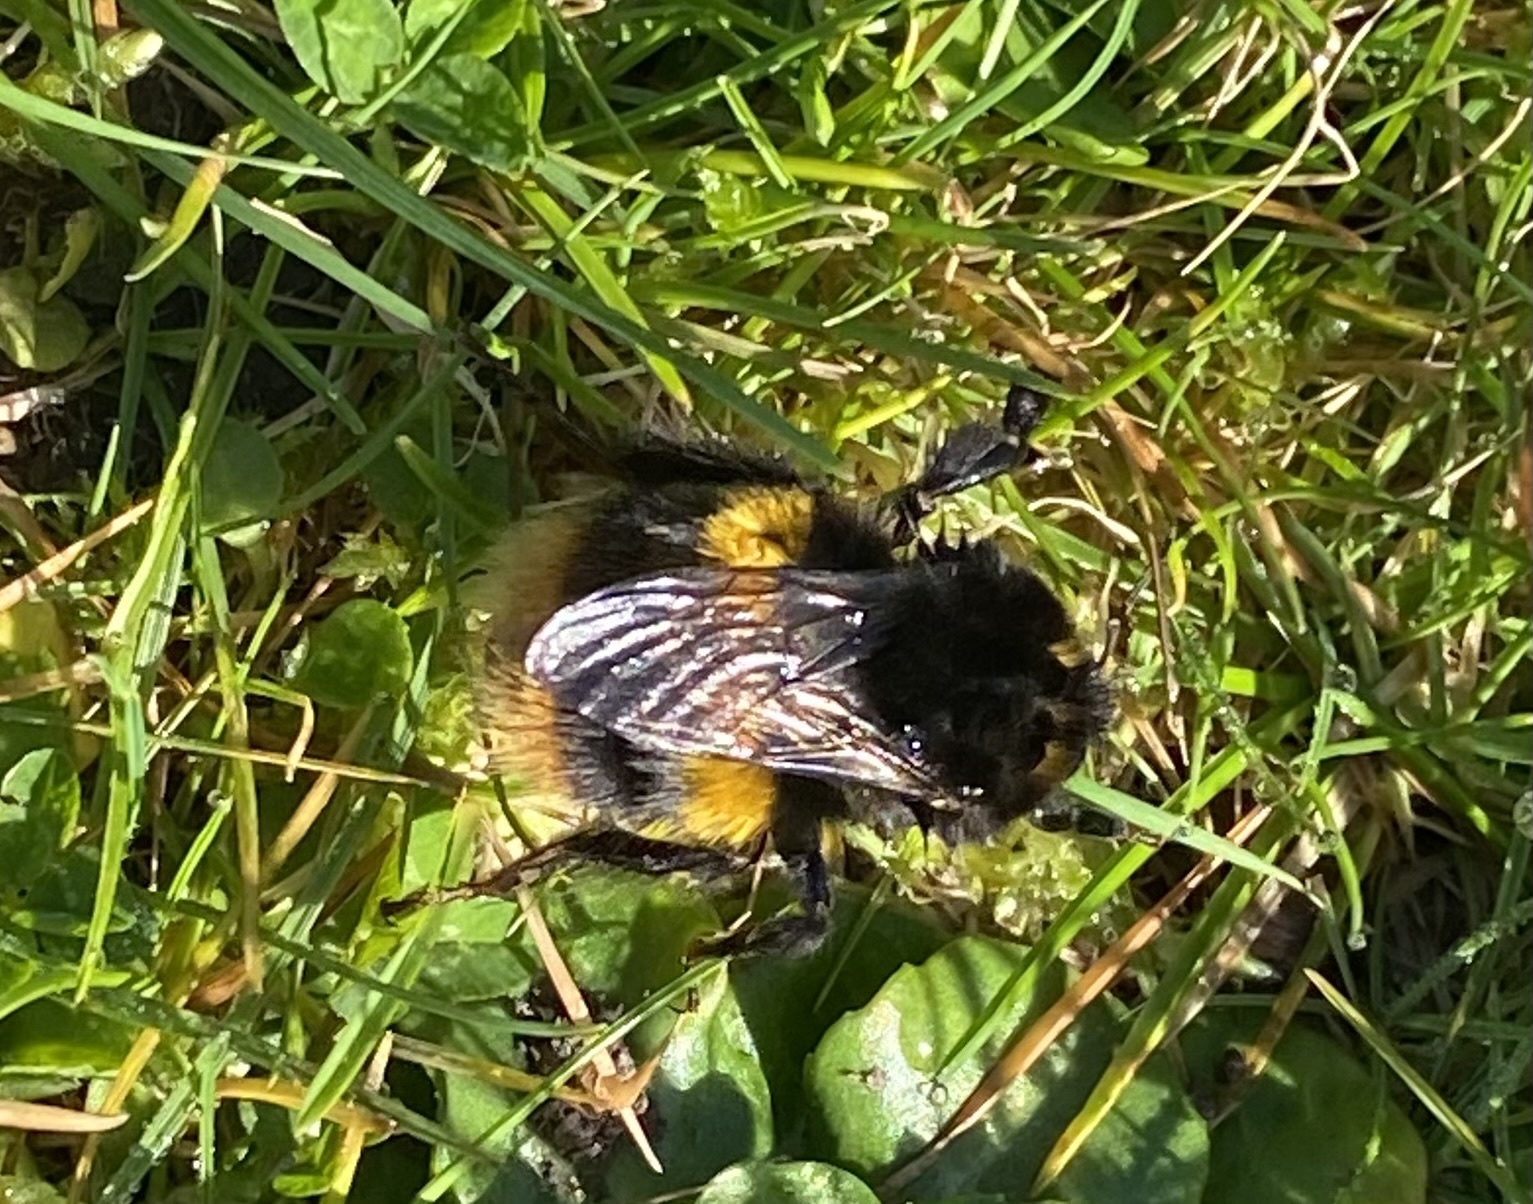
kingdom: Animalia
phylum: Arthropoda
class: Insecta
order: Hymenoptera
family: Apidae
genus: Bombus
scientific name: Bombus terrestris
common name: Buff-tailed bumblebee
